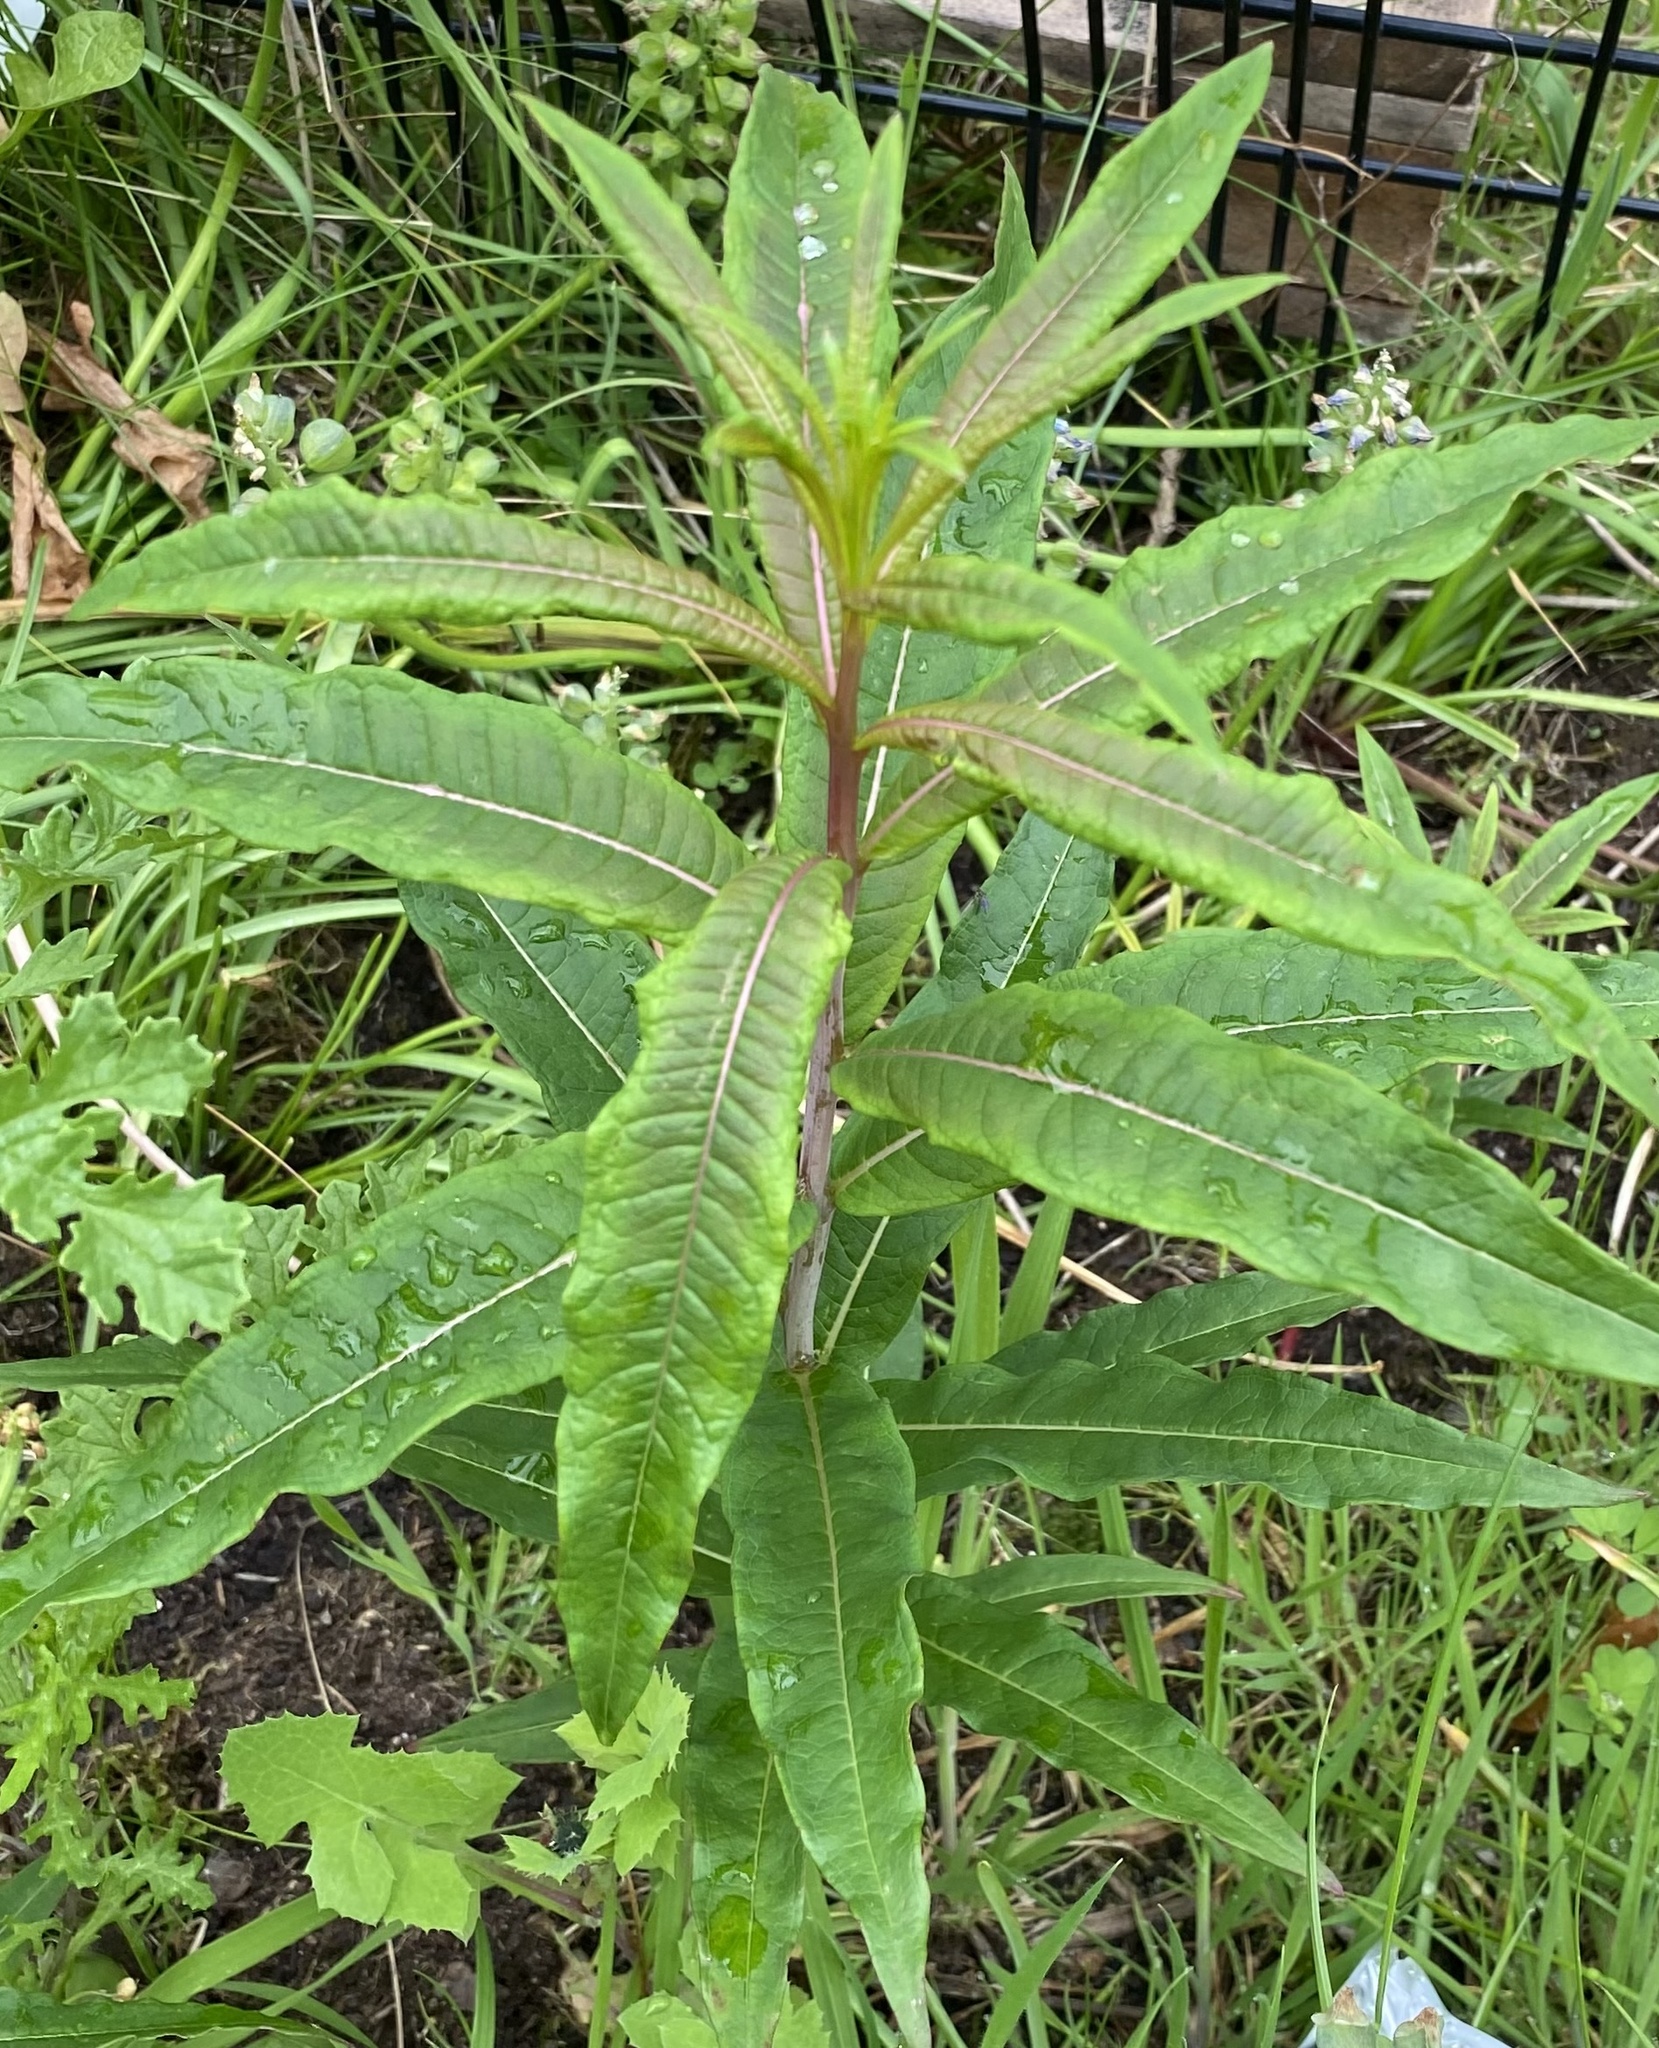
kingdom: Plantae
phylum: Tracheophyta
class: Magnoliopsida
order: Myrtales
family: Onagraceae
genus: Chamaenerion
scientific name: Chamaenerion angustifolium
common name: Fireweed
